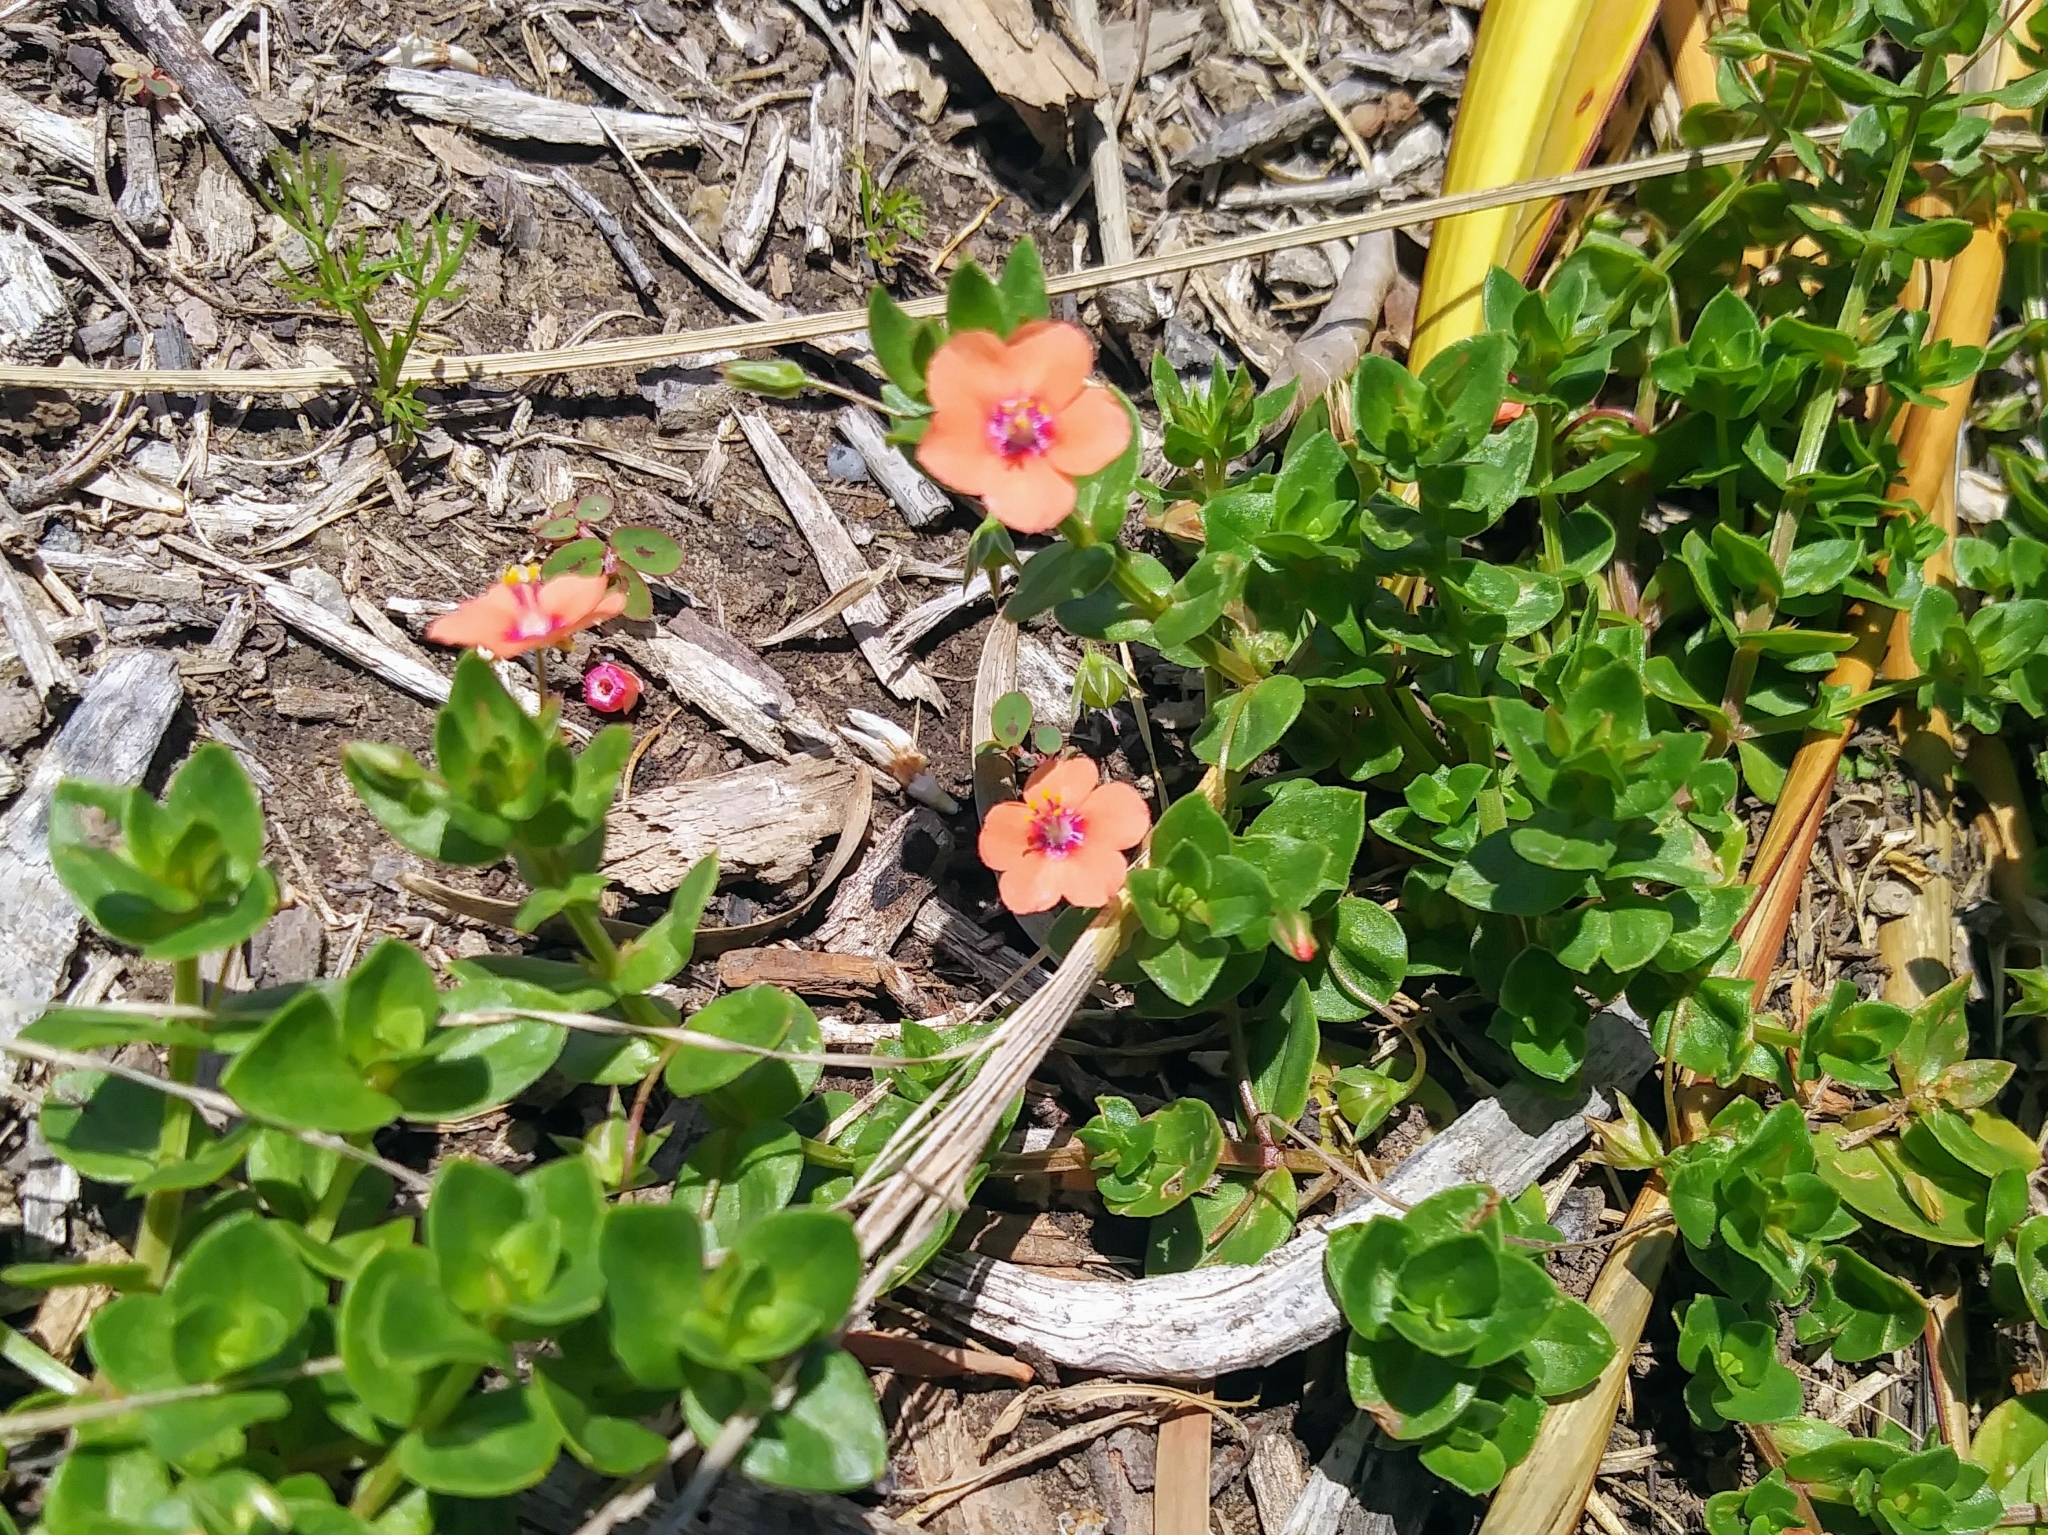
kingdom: Plantae
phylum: Tracheophyta
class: Magnoliopsida
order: Ericales
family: Primulaceae
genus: Lysimachia
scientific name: Lysimachia arvensis
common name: Scarlet pimpernel
